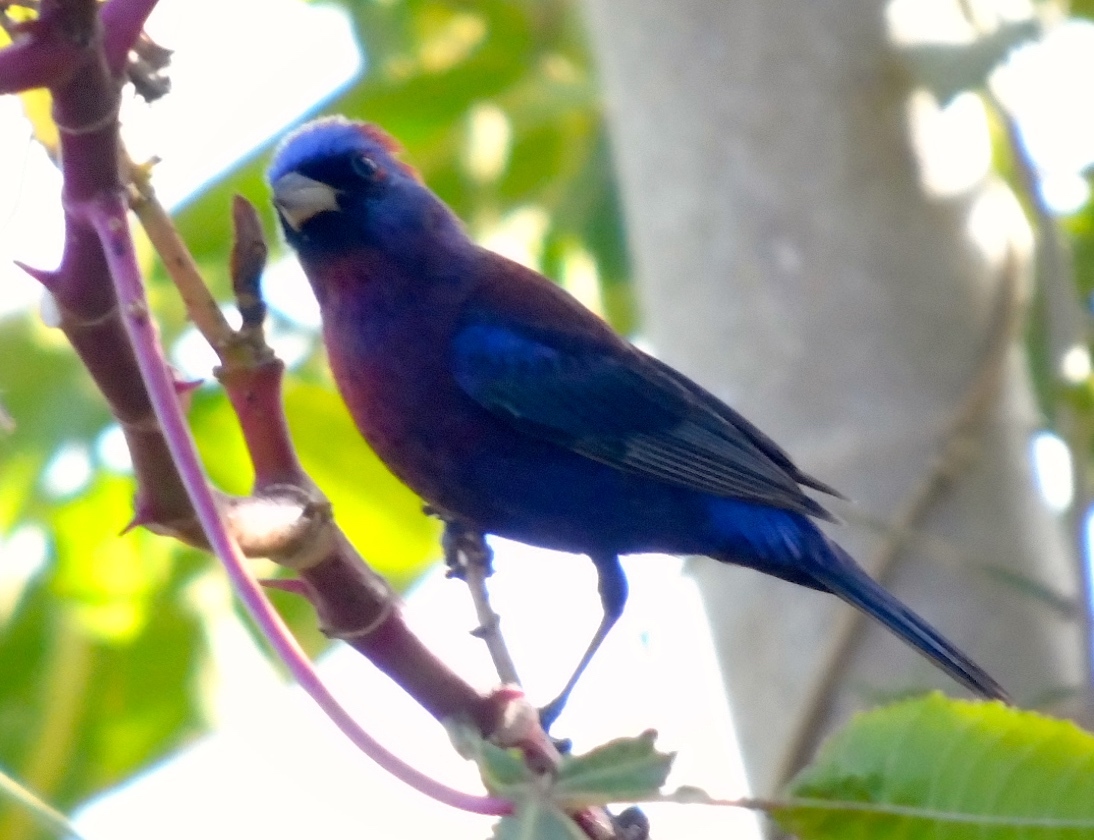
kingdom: Animalia
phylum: Chordata
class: Aves
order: Passeriformes
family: Cardinalidae
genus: Passerina
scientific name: Passerina versicolor
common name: Varied bunting
